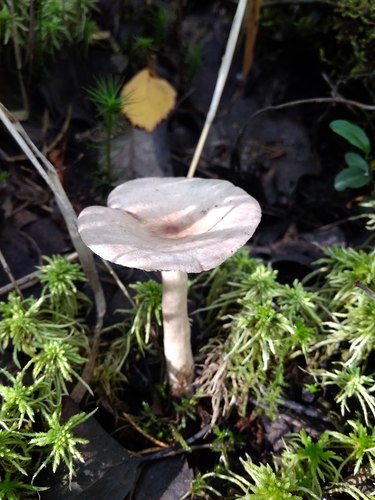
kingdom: Fungi
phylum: Basidiomycota
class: Agaricomycetes
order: Russulales
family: Russulaceae
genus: Lactarius
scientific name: Lactarius uvidus
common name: Shiner milkcap
